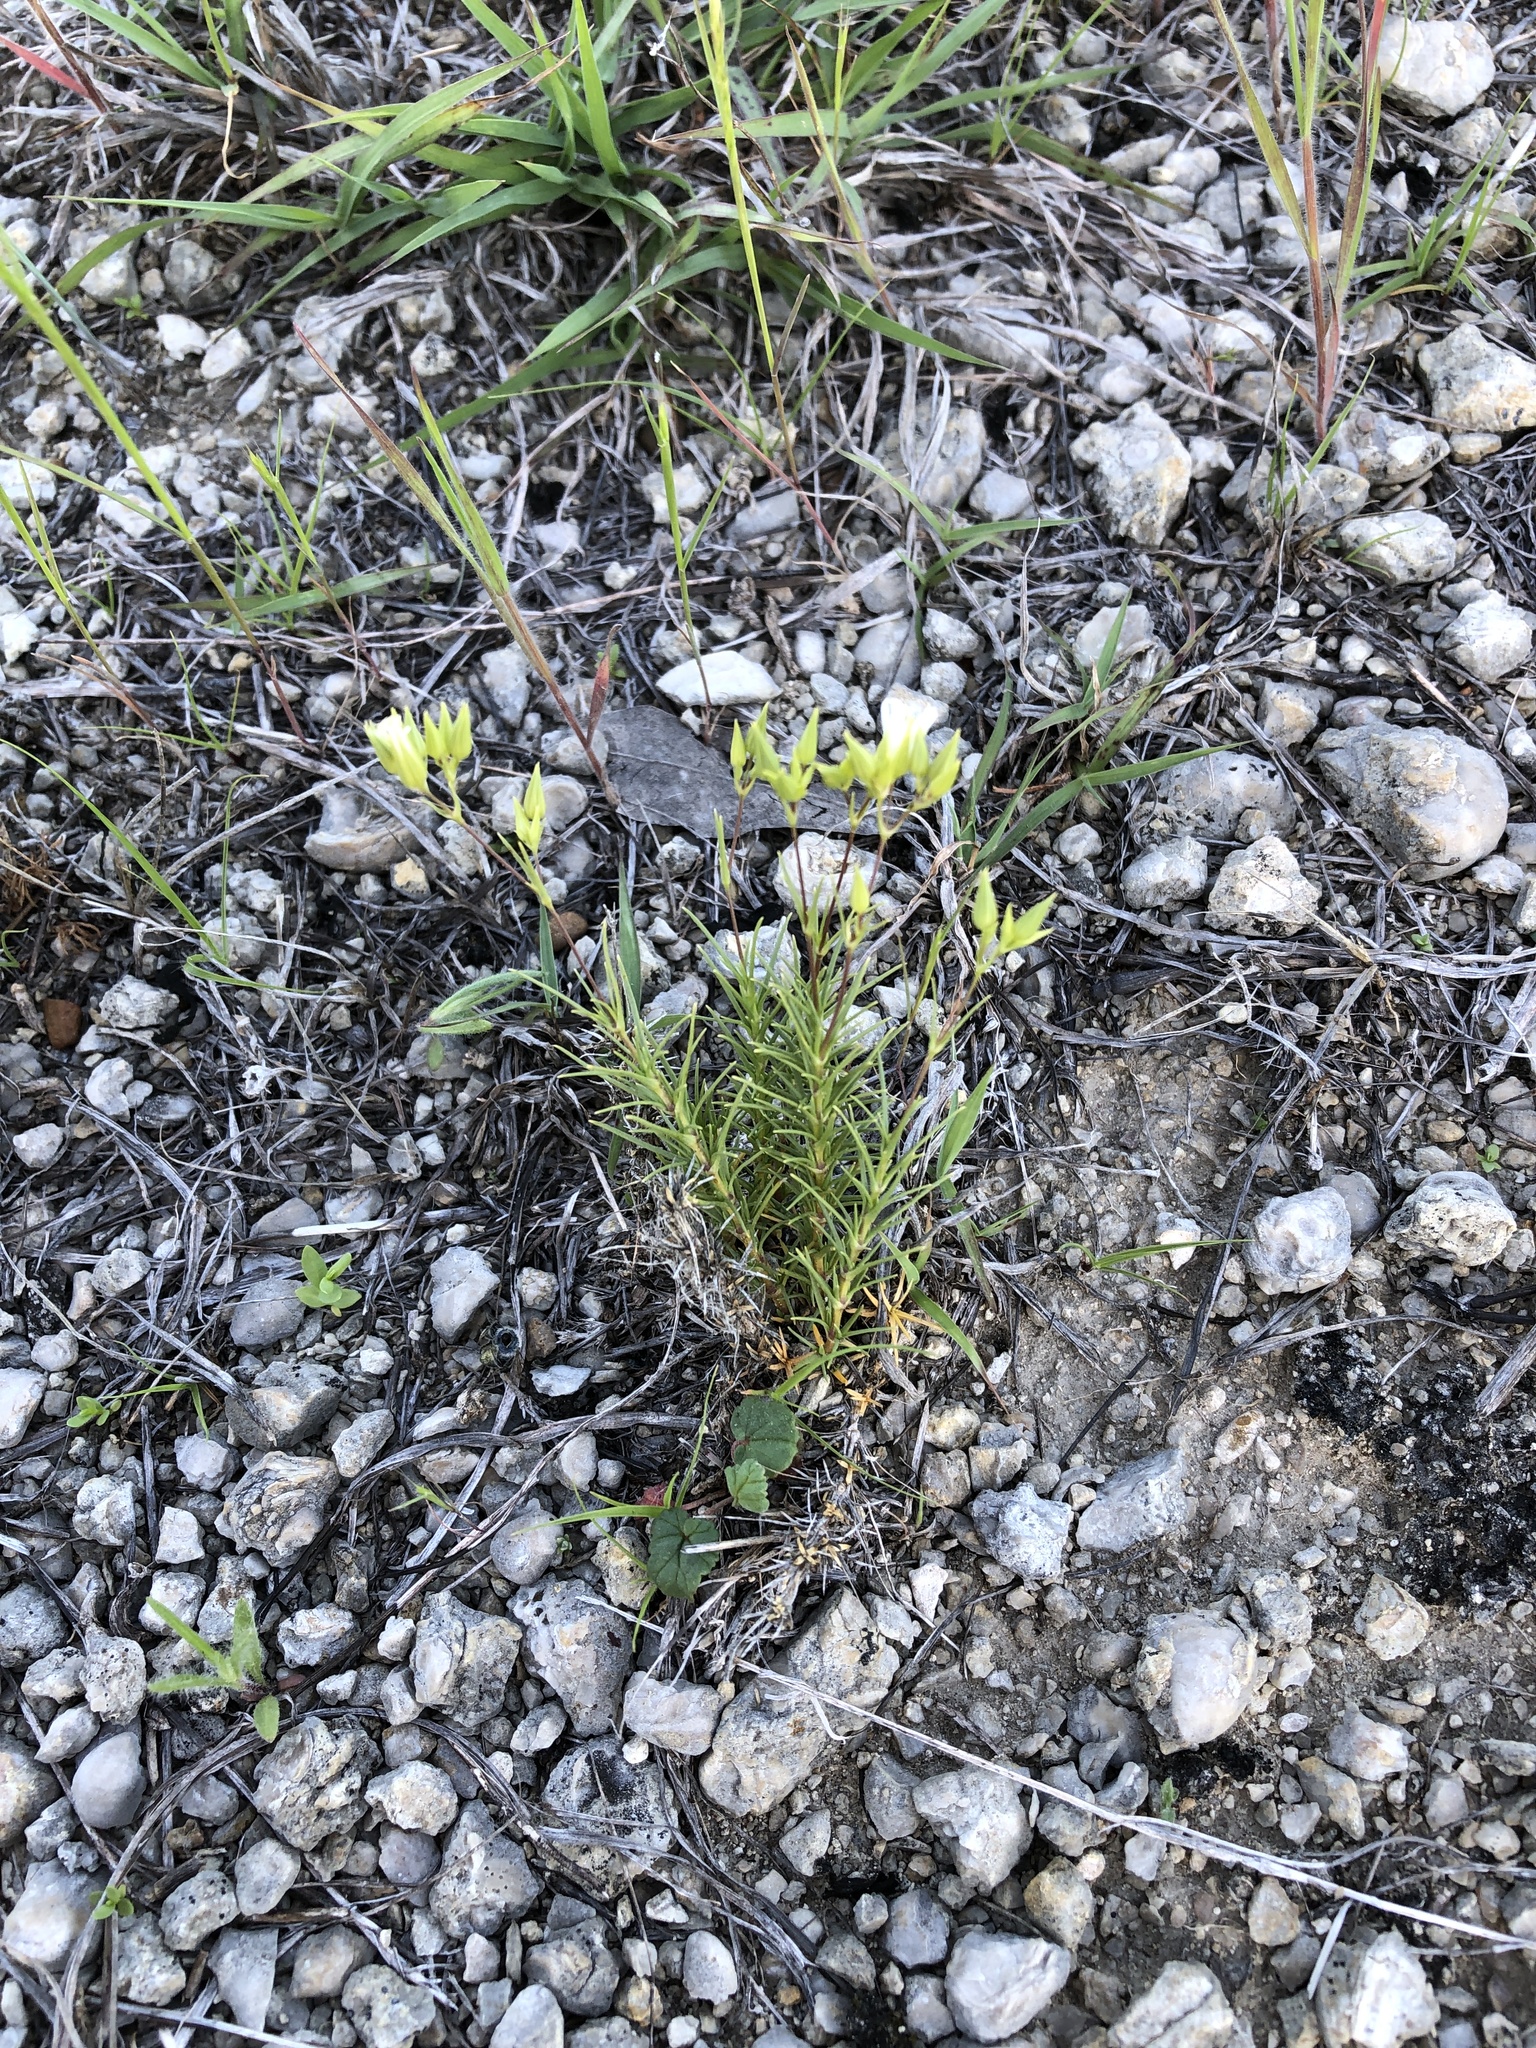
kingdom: Plantae
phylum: Tracheophyta
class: Magnoliopsida
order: Caryophyllales
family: Caryophyllaceae
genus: Sabulina
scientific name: Sabulina michauxii
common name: Michaux's stitchwort
